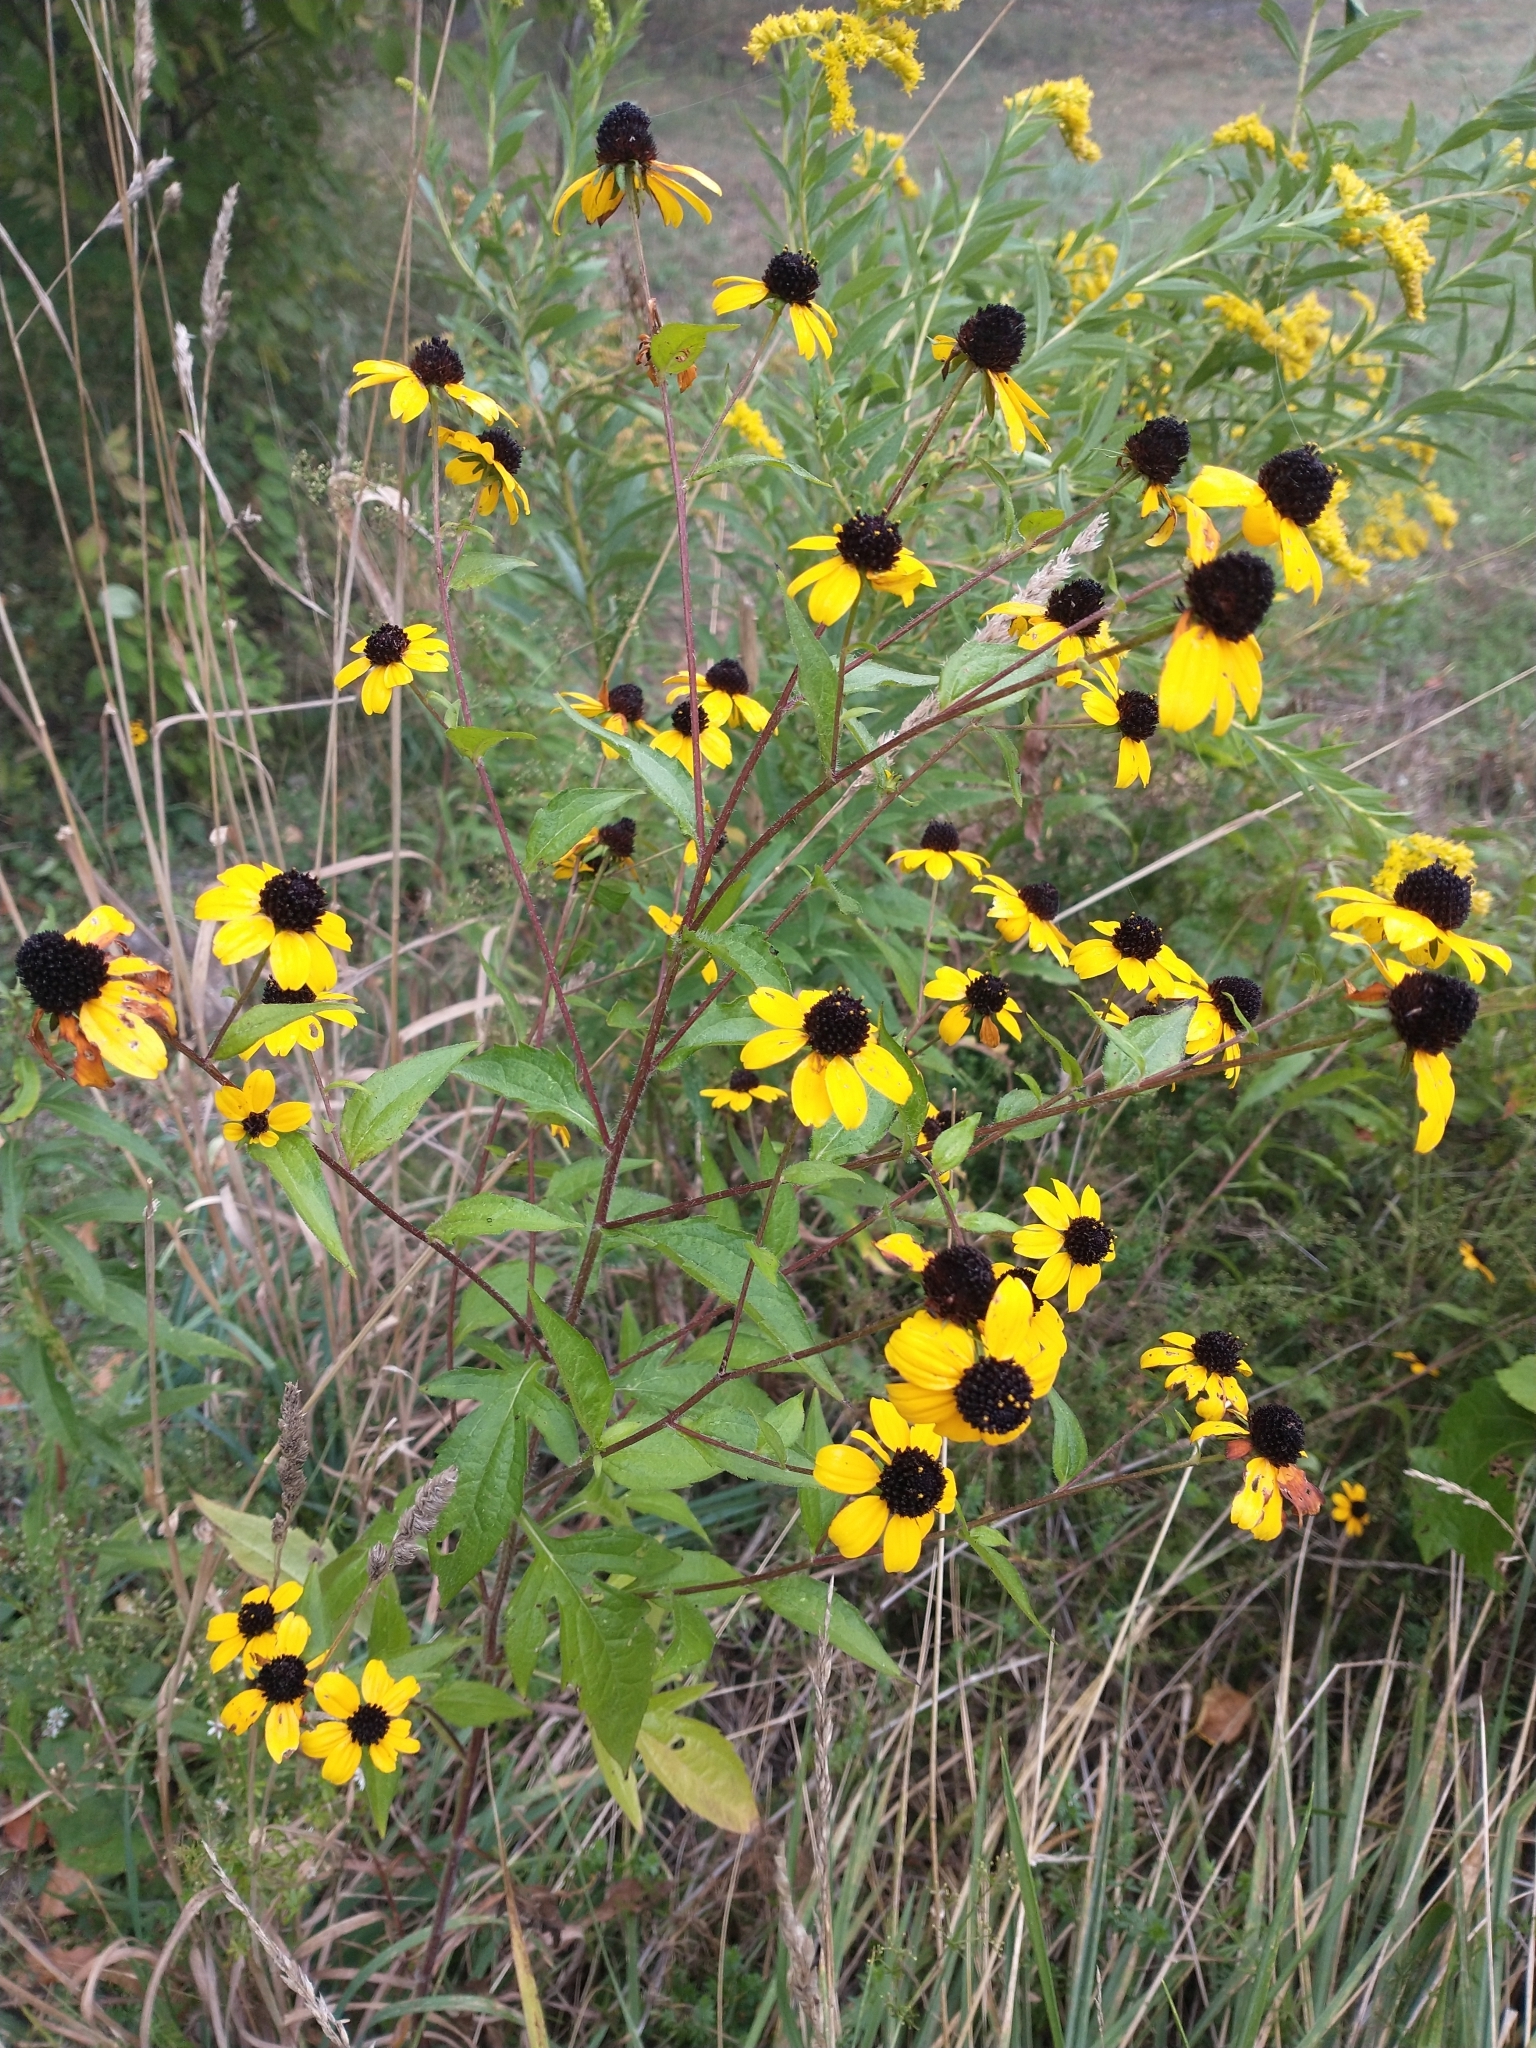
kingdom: Plantae
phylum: Tracheophyta
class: Magnoliopsida
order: Asterales
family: Asteraceae
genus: Rudbeckia
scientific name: Rudbeckia triloba
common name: Thin-leaved coneflower
